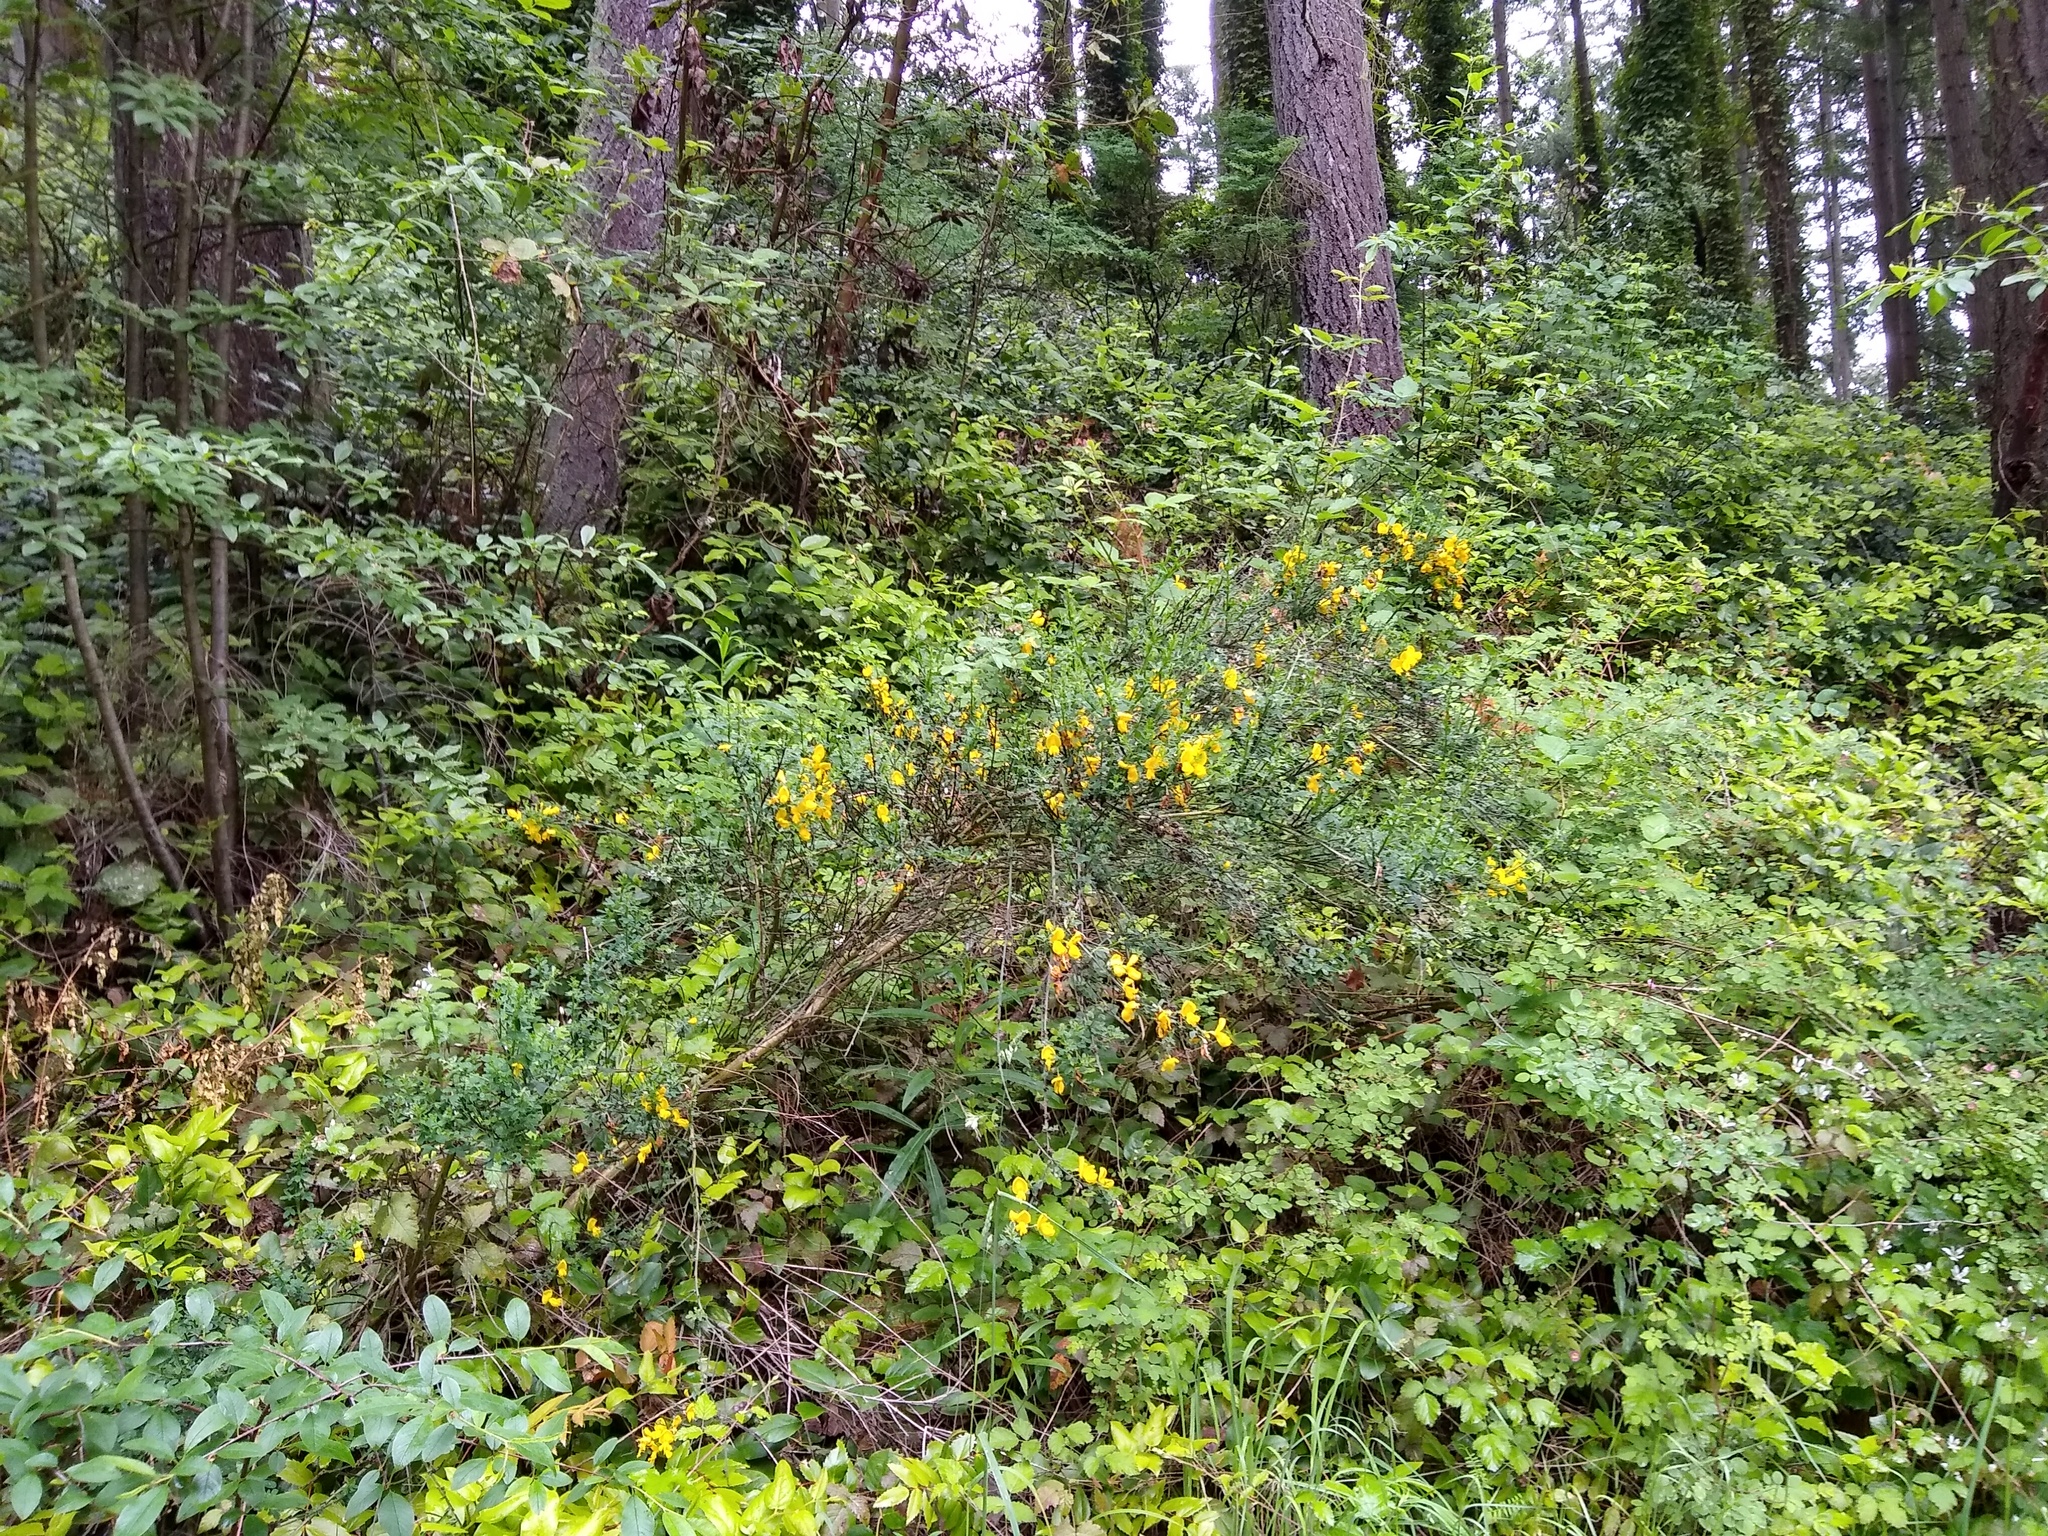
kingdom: Plantae
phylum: Tracheophyta
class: Magnoliopsida
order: Fabales
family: Fabaceae
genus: Cytisus
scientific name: Cytisus scoparius
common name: Scotch broom
